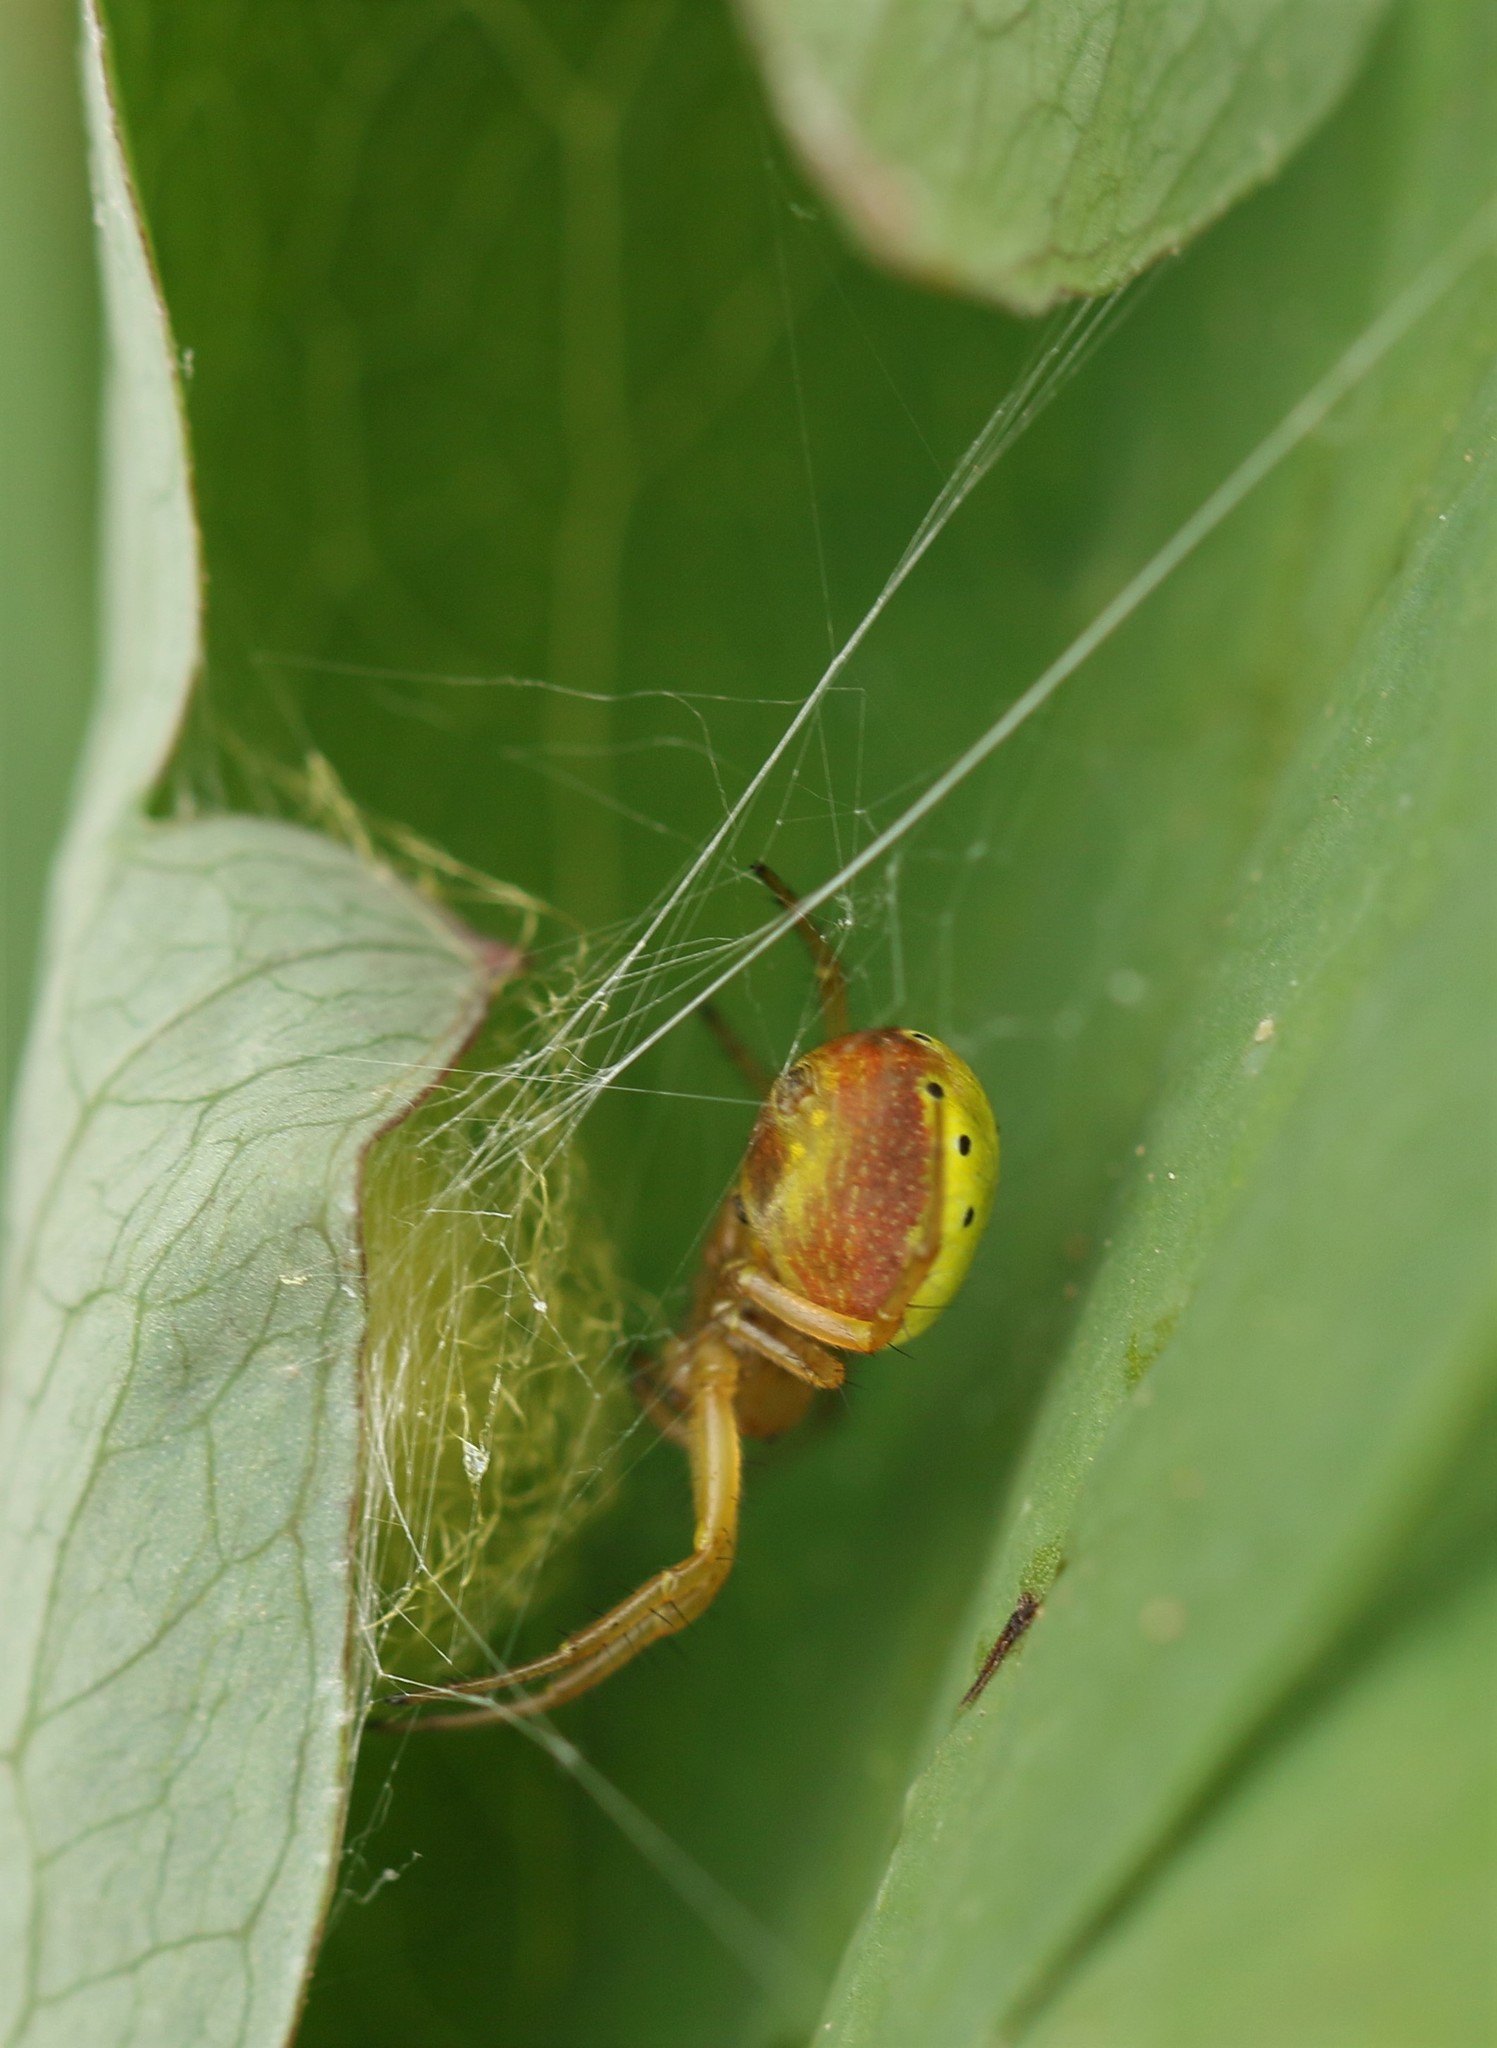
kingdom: Animalia
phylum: Arthropoda
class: Arachnida
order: Araneae
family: Araneidae
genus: Araniella
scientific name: Araniella displicata
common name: Sixspotted orb weaver
